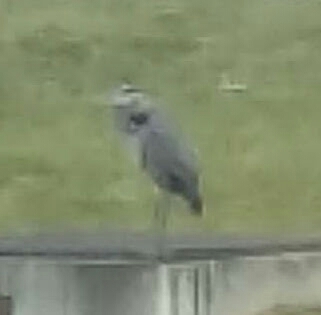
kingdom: Animalia
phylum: Chordata
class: Aves
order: Pelecaniformes
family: Ardeidae
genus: Ardea
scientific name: Ardea herodias
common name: Great blue heron
